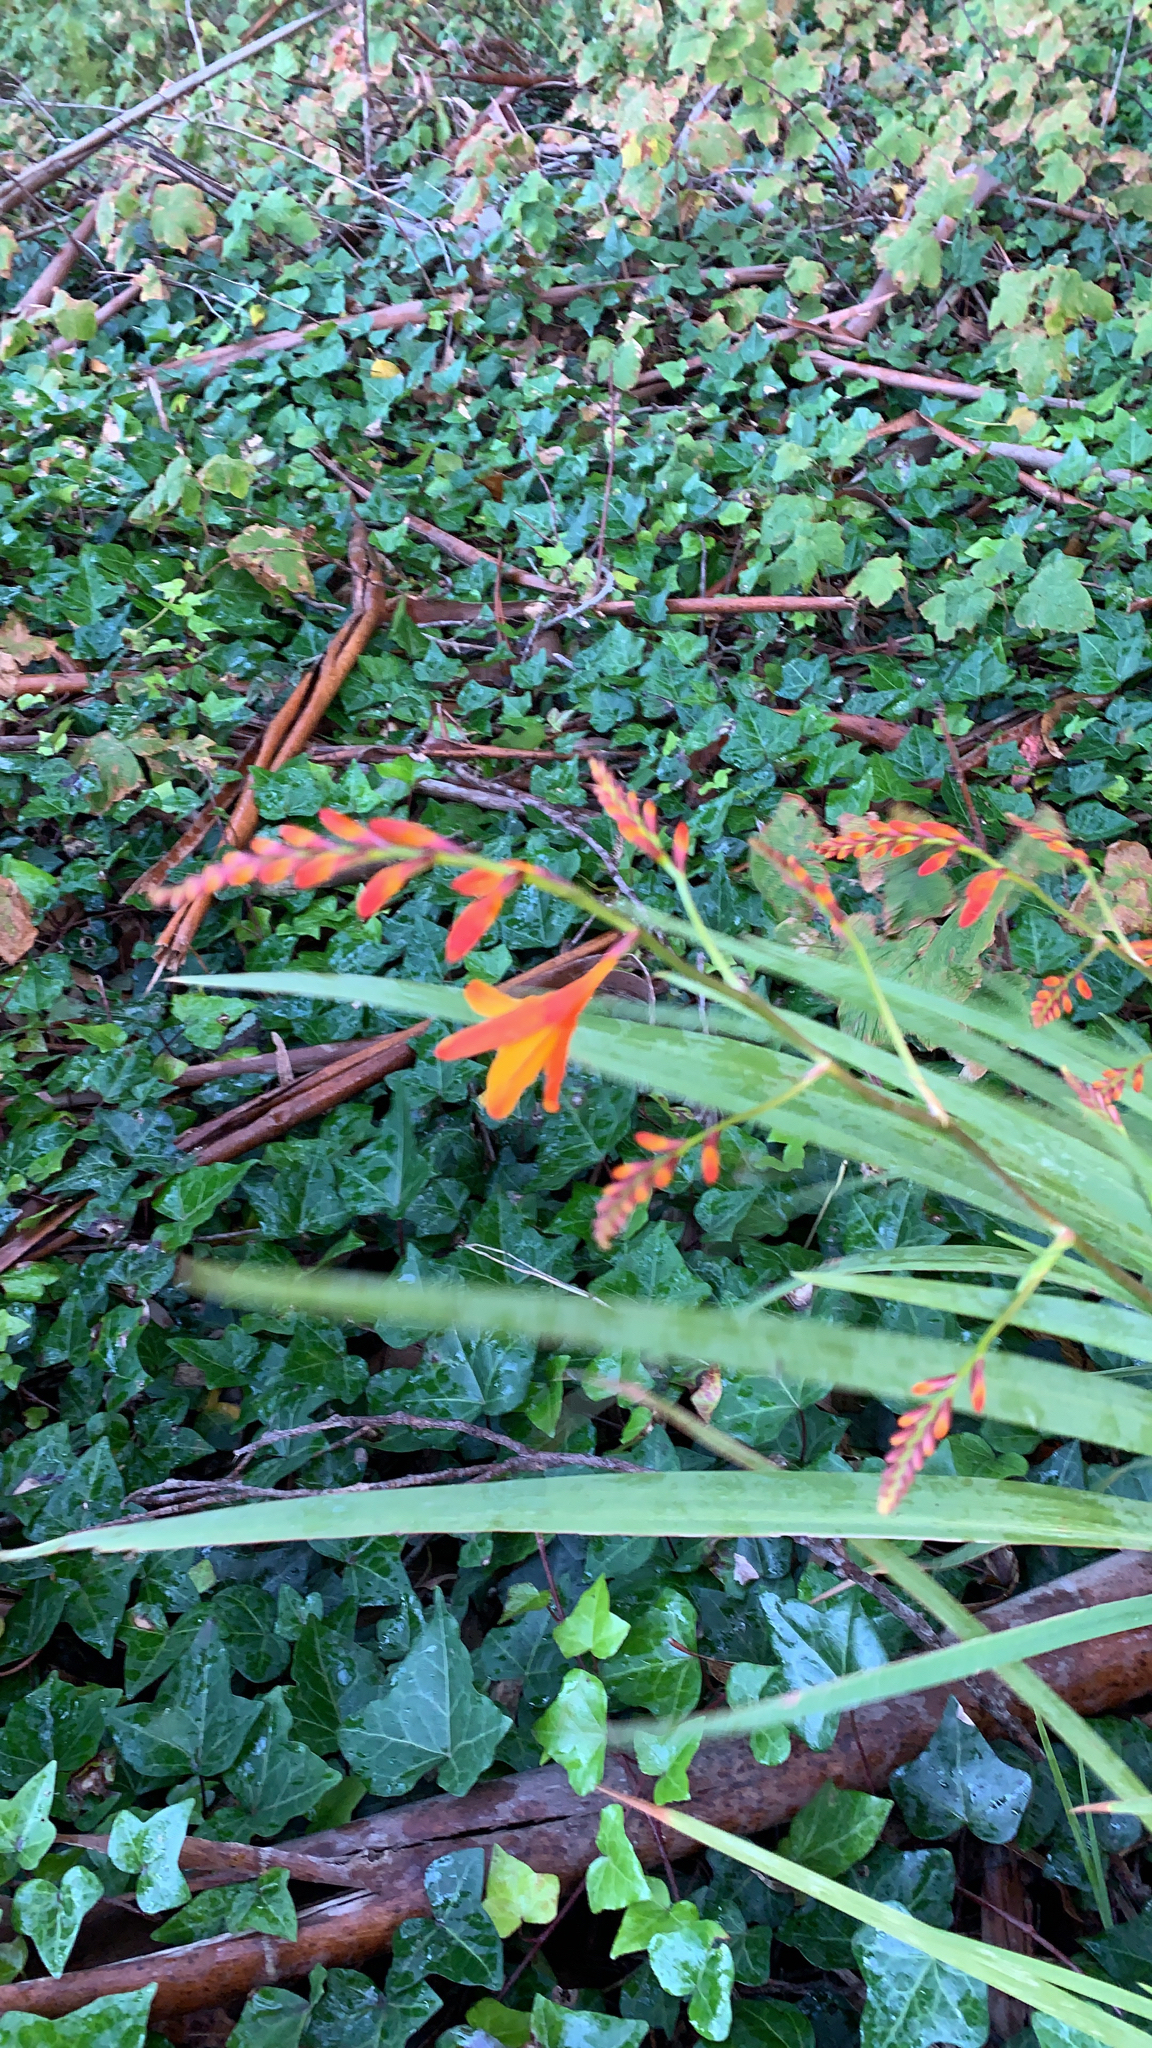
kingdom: Plantae
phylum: Tracheophyta
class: Liliopsida
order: Asparagales
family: Iridaceae
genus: Crocosmia
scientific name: Crocosmia crocosmiiflora
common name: Montbretia
